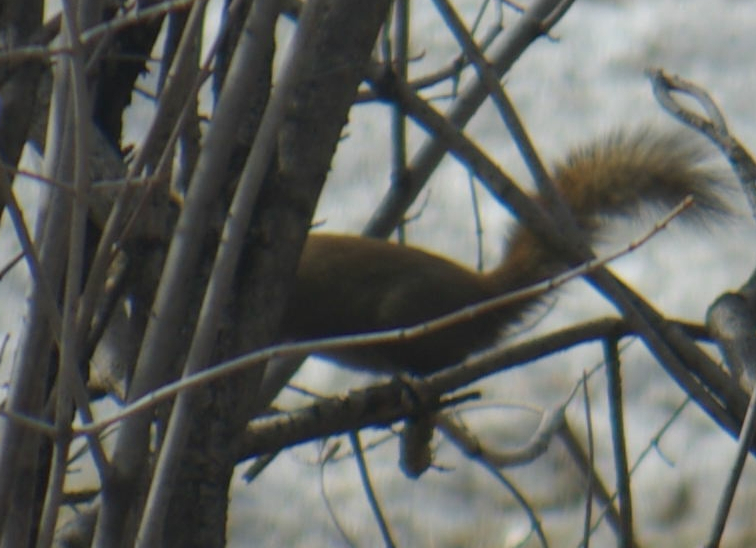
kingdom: Animalia
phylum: Chordata
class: Mammalia
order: Rodentia
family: Sciuridae
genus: Tamiasciurus
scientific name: Tamiasciurus hudsonicus
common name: Red squirrel
